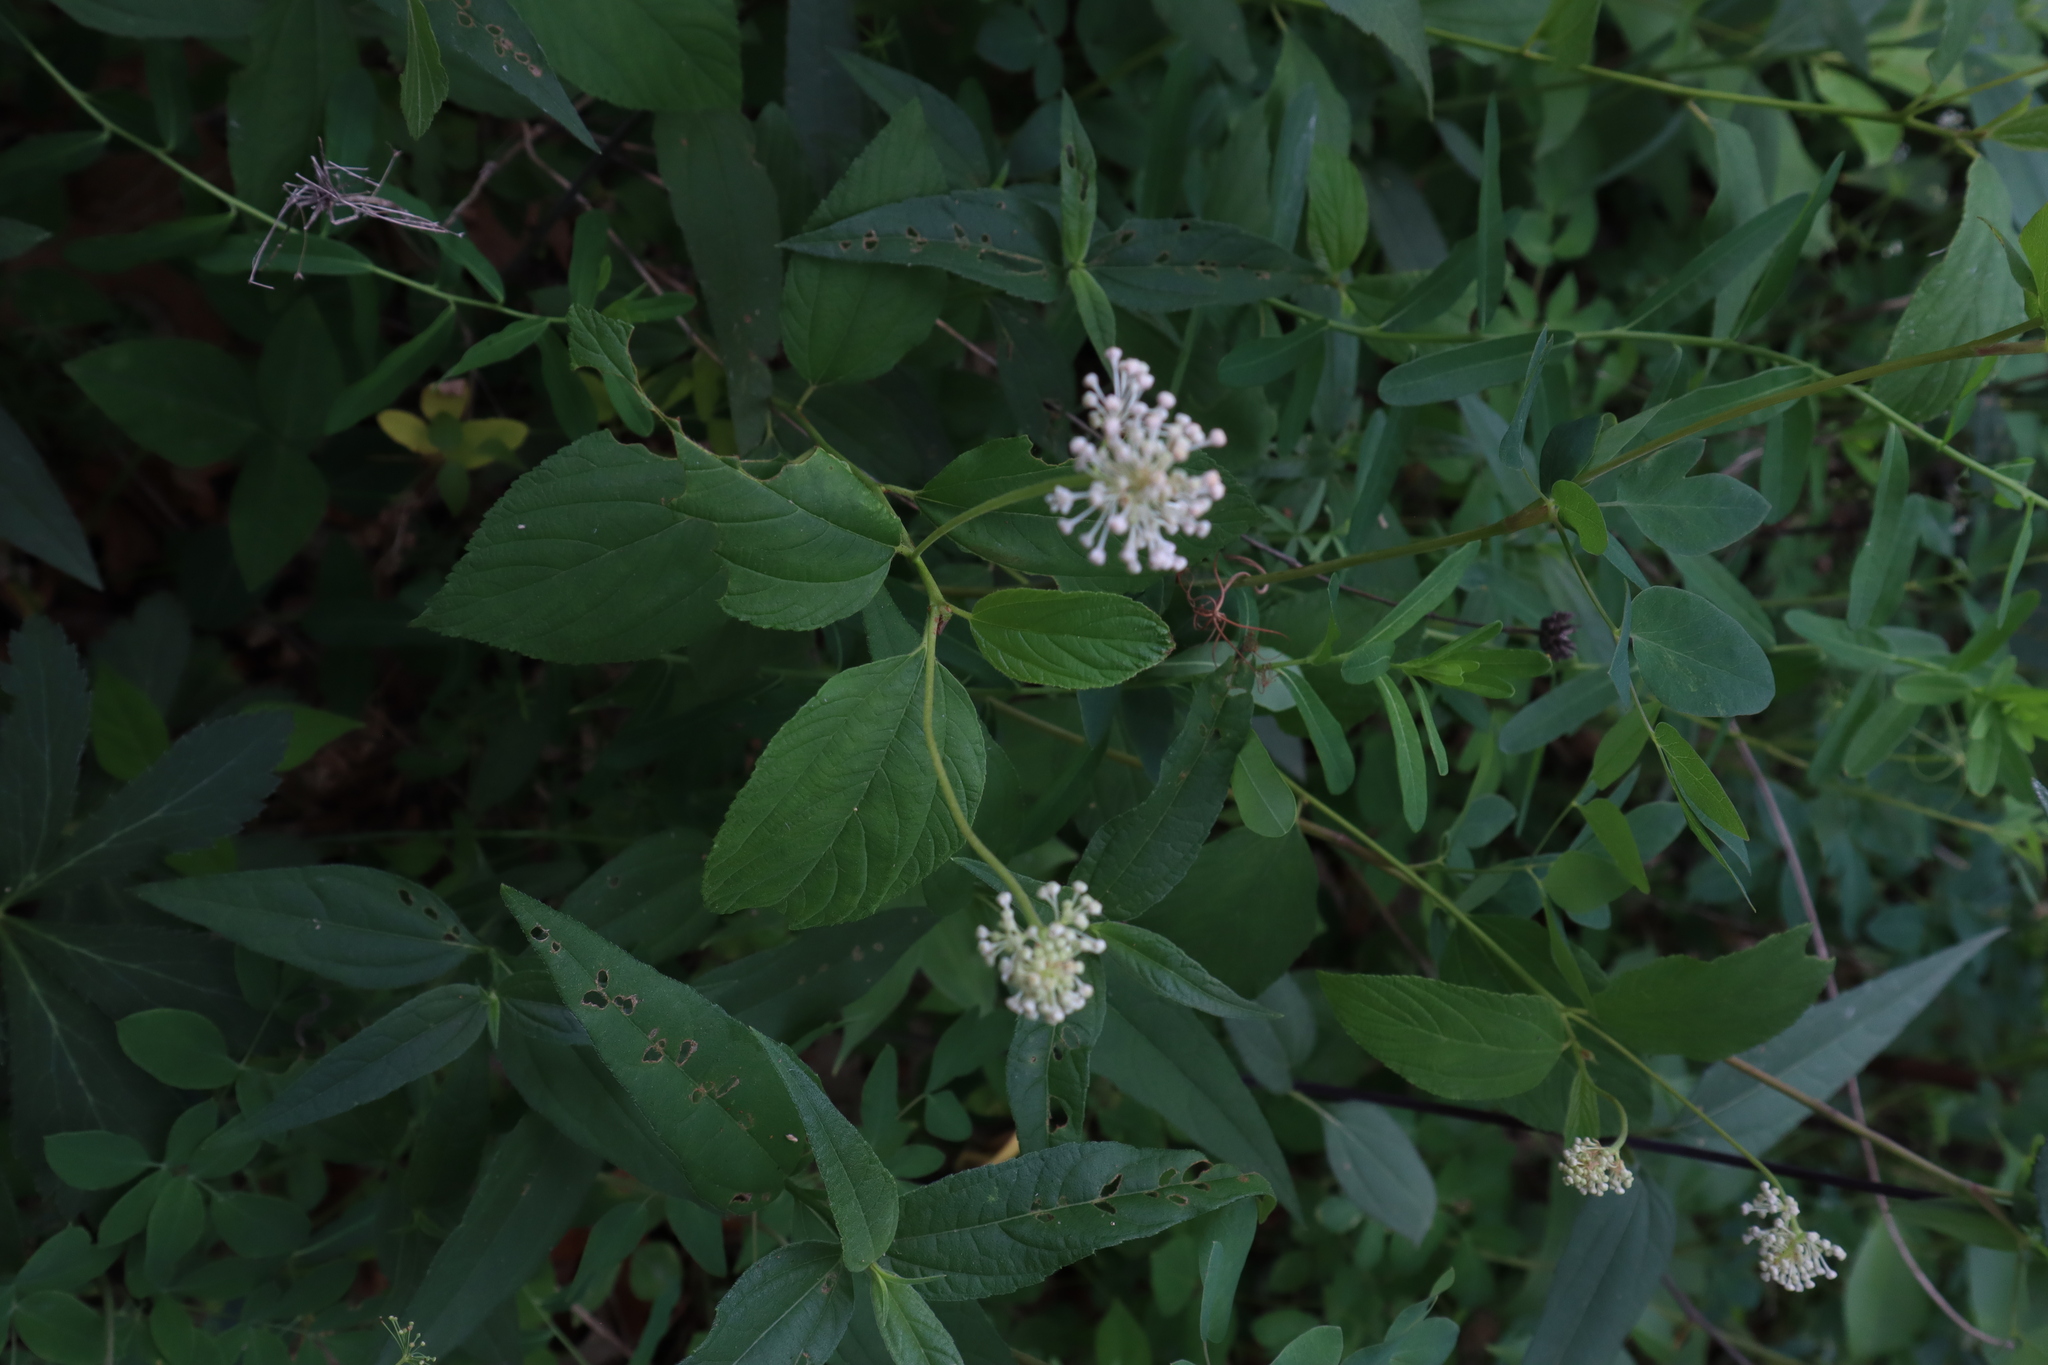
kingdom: Plantae
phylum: Tracheophyta
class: Magnoliopsida
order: Rosales
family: Rhamnaceae
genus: Ceanothus
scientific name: Ceanothus americanus
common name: Redroot
